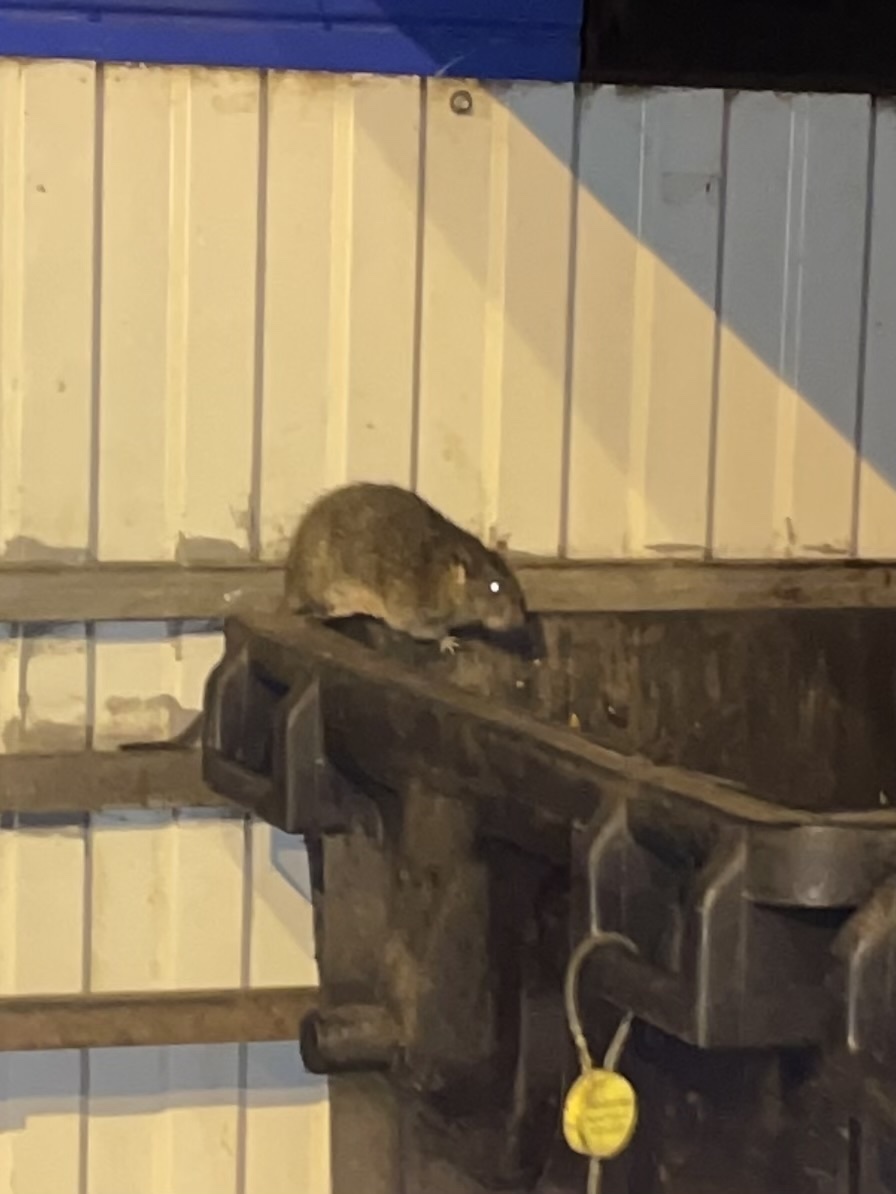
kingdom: Animalia
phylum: Chordata
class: Mammalia
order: Rodentia
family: Muridae
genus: Rattus
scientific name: Rattus norvegicus
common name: Brown rat
